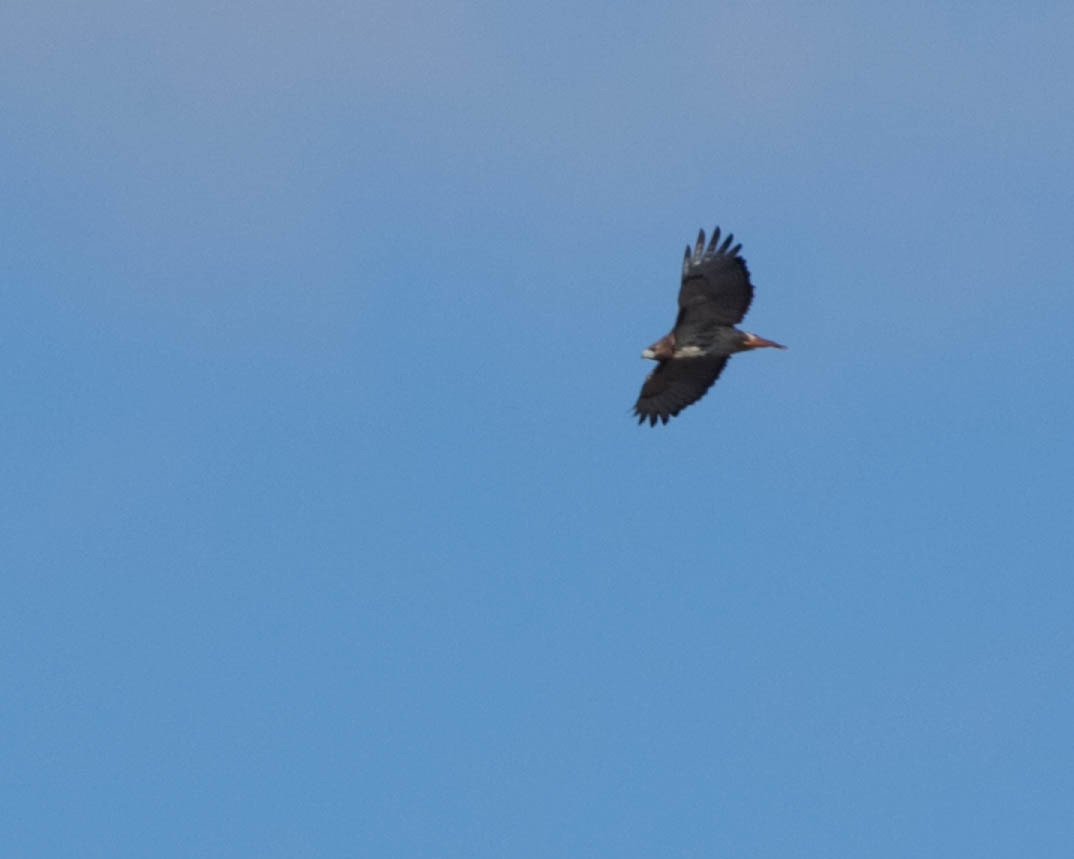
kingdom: Animalia
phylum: Chordata
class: Aves
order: Accipitriformes
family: Accipitridae
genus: Buteo
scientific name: Buteo jamaicensis
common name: Red-tailed hawk
